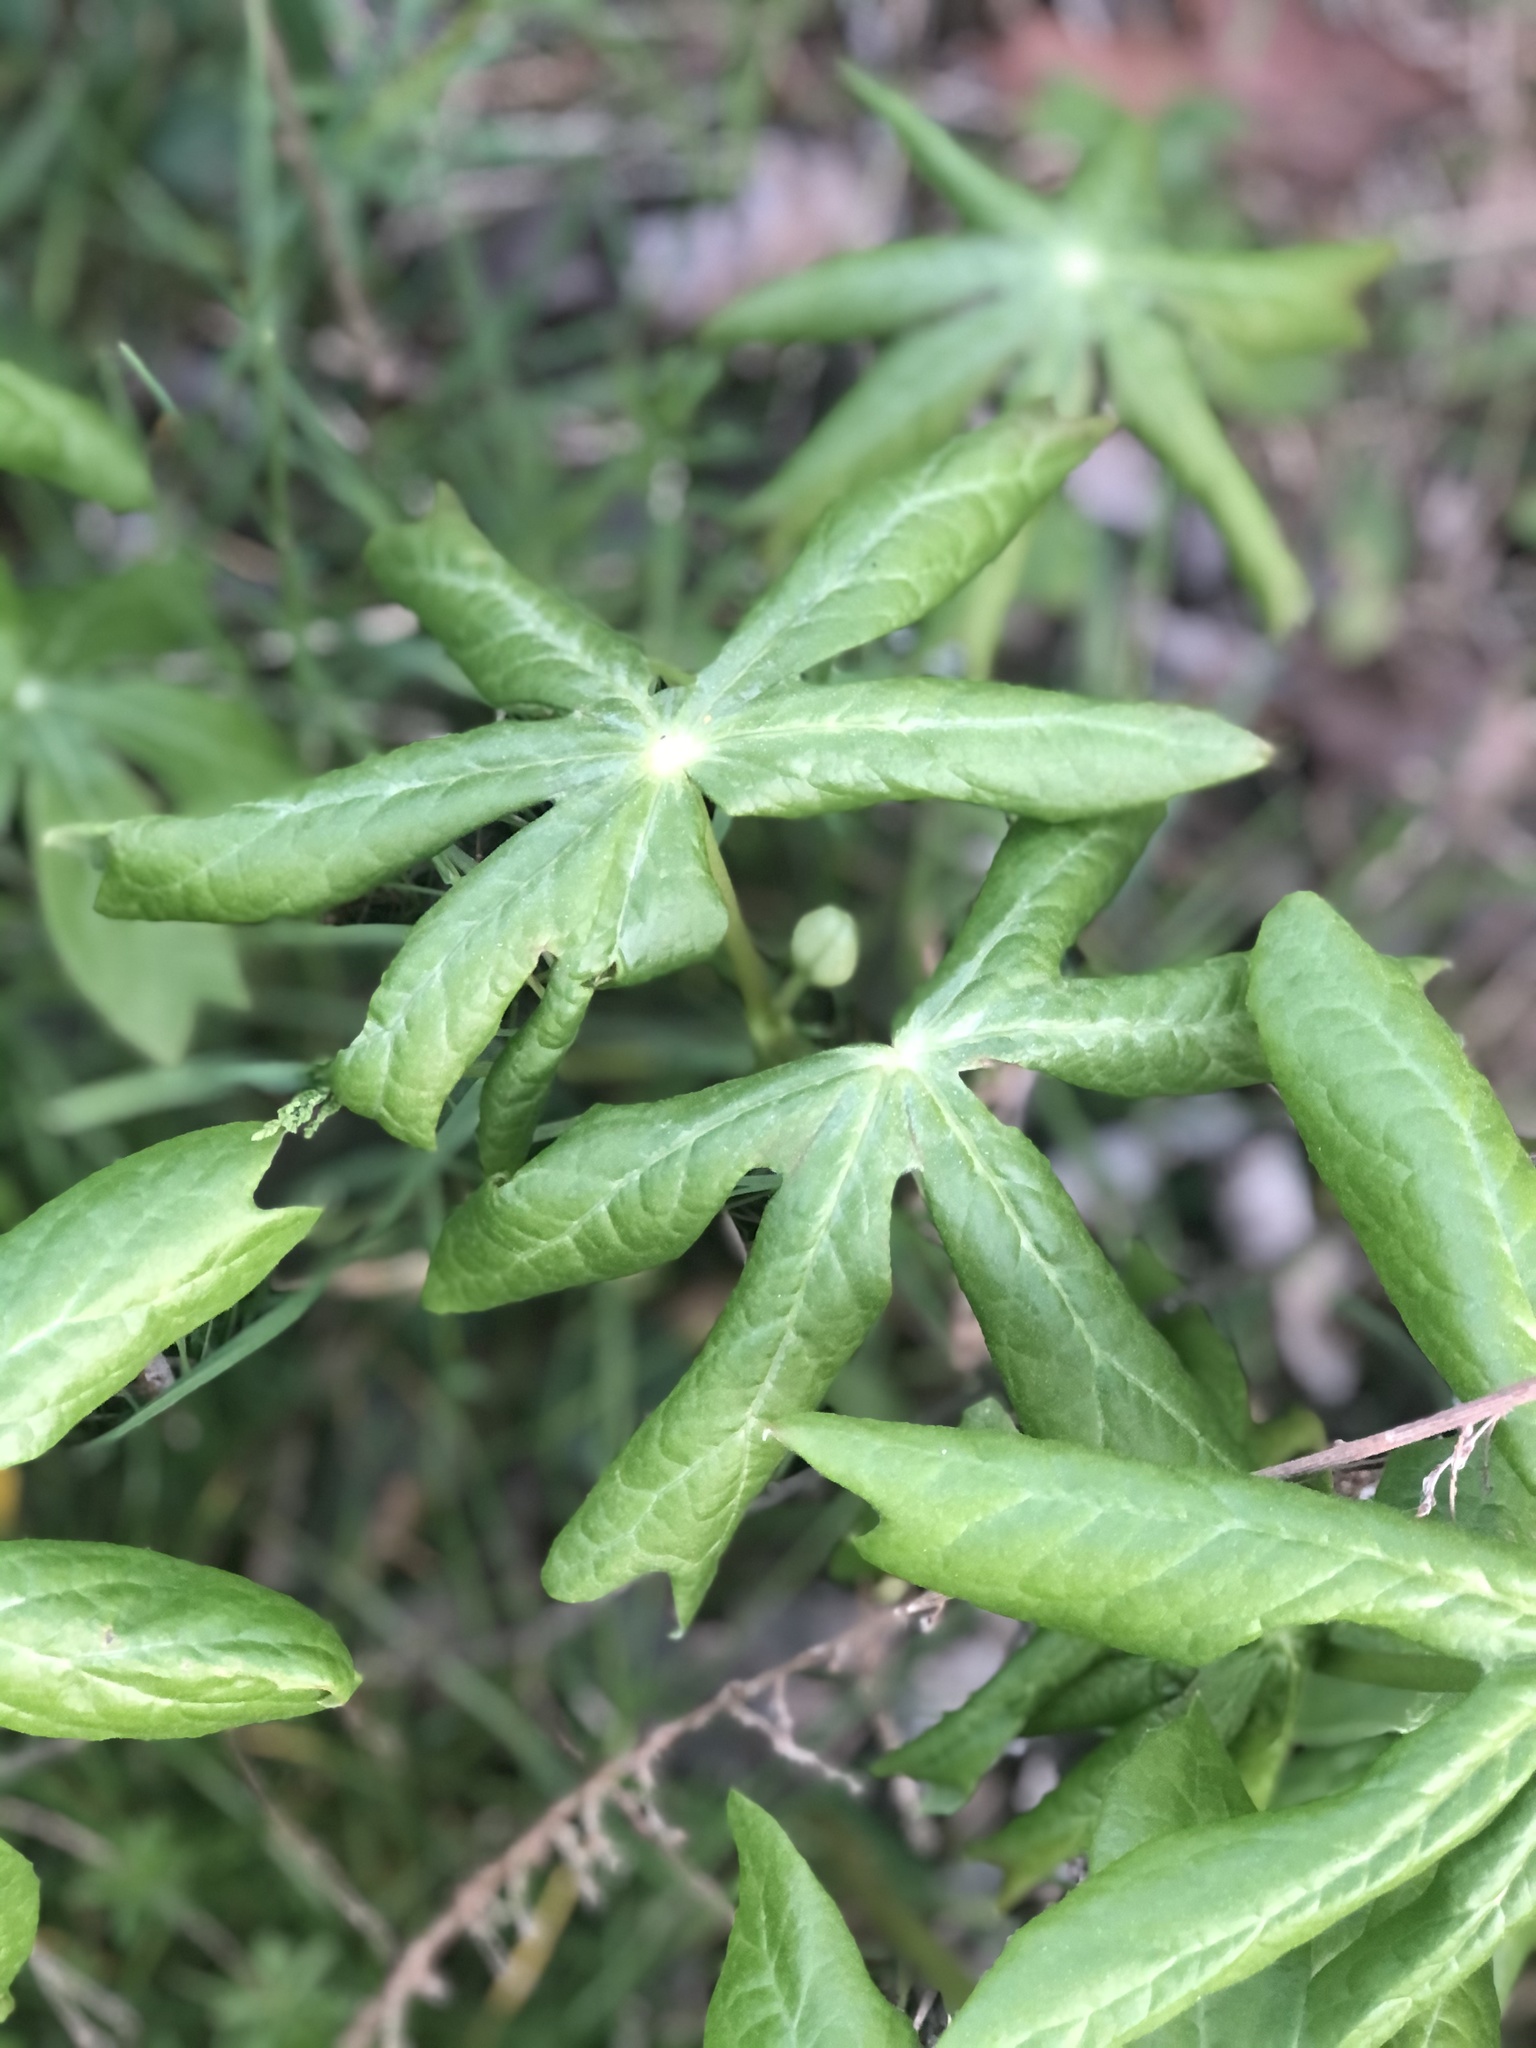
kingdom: Plantae
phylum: Tracheophyta
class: Magnoliopsida
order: Ranunculales
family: Berberidaceae
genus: Podophyllum
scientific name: Podophyllum peltatum
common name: Wild mandrake
